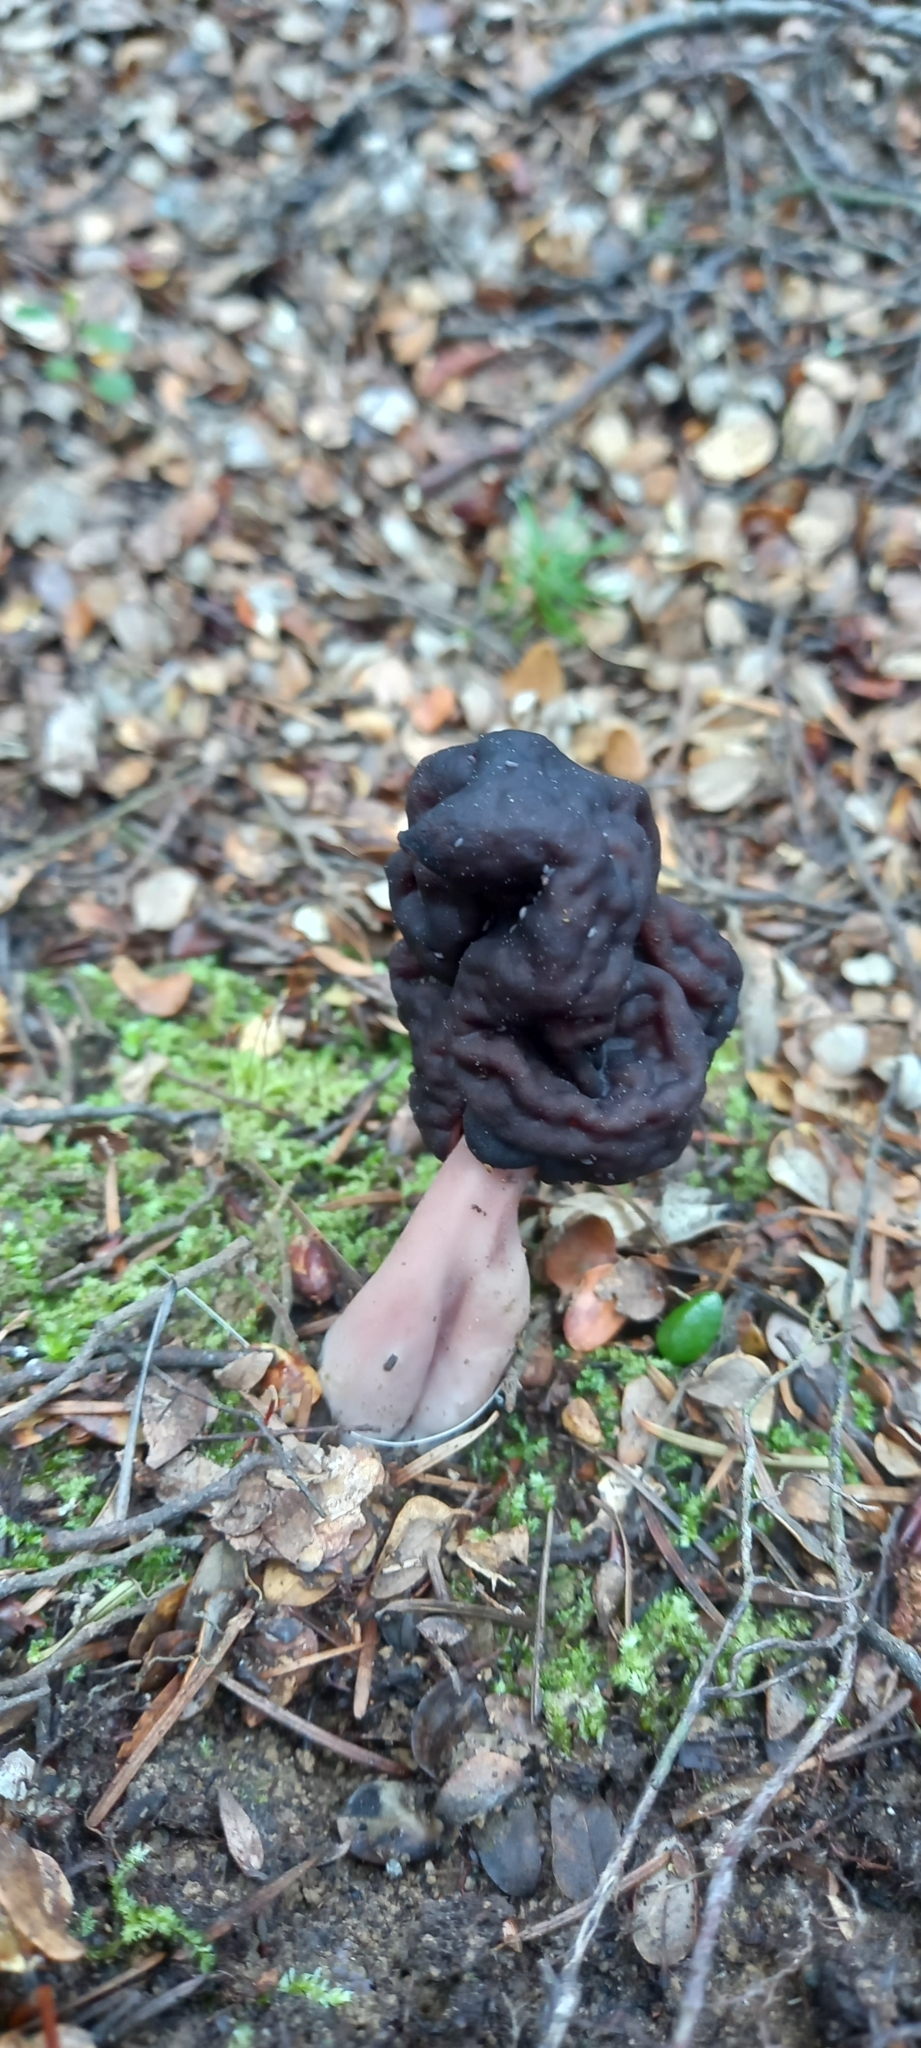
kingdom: Fungi
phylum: Ascomycota
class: Pezizomycetes
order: Pezizales
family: Discinaceae
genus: Gyromitra
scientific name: Gyromitra tasmanica
